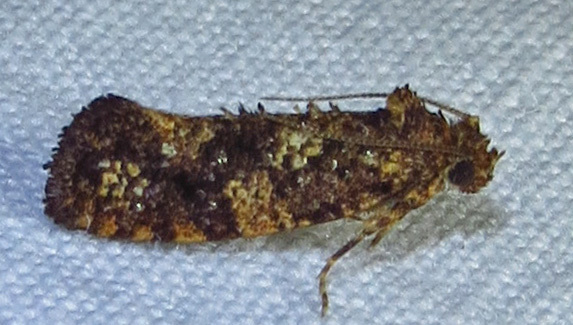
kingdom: Animalia
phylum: Arthropoda
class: Insecta
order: Lepidoptera
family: Tineidae
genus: Acrolophus
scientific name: Acrolophus cressoni
